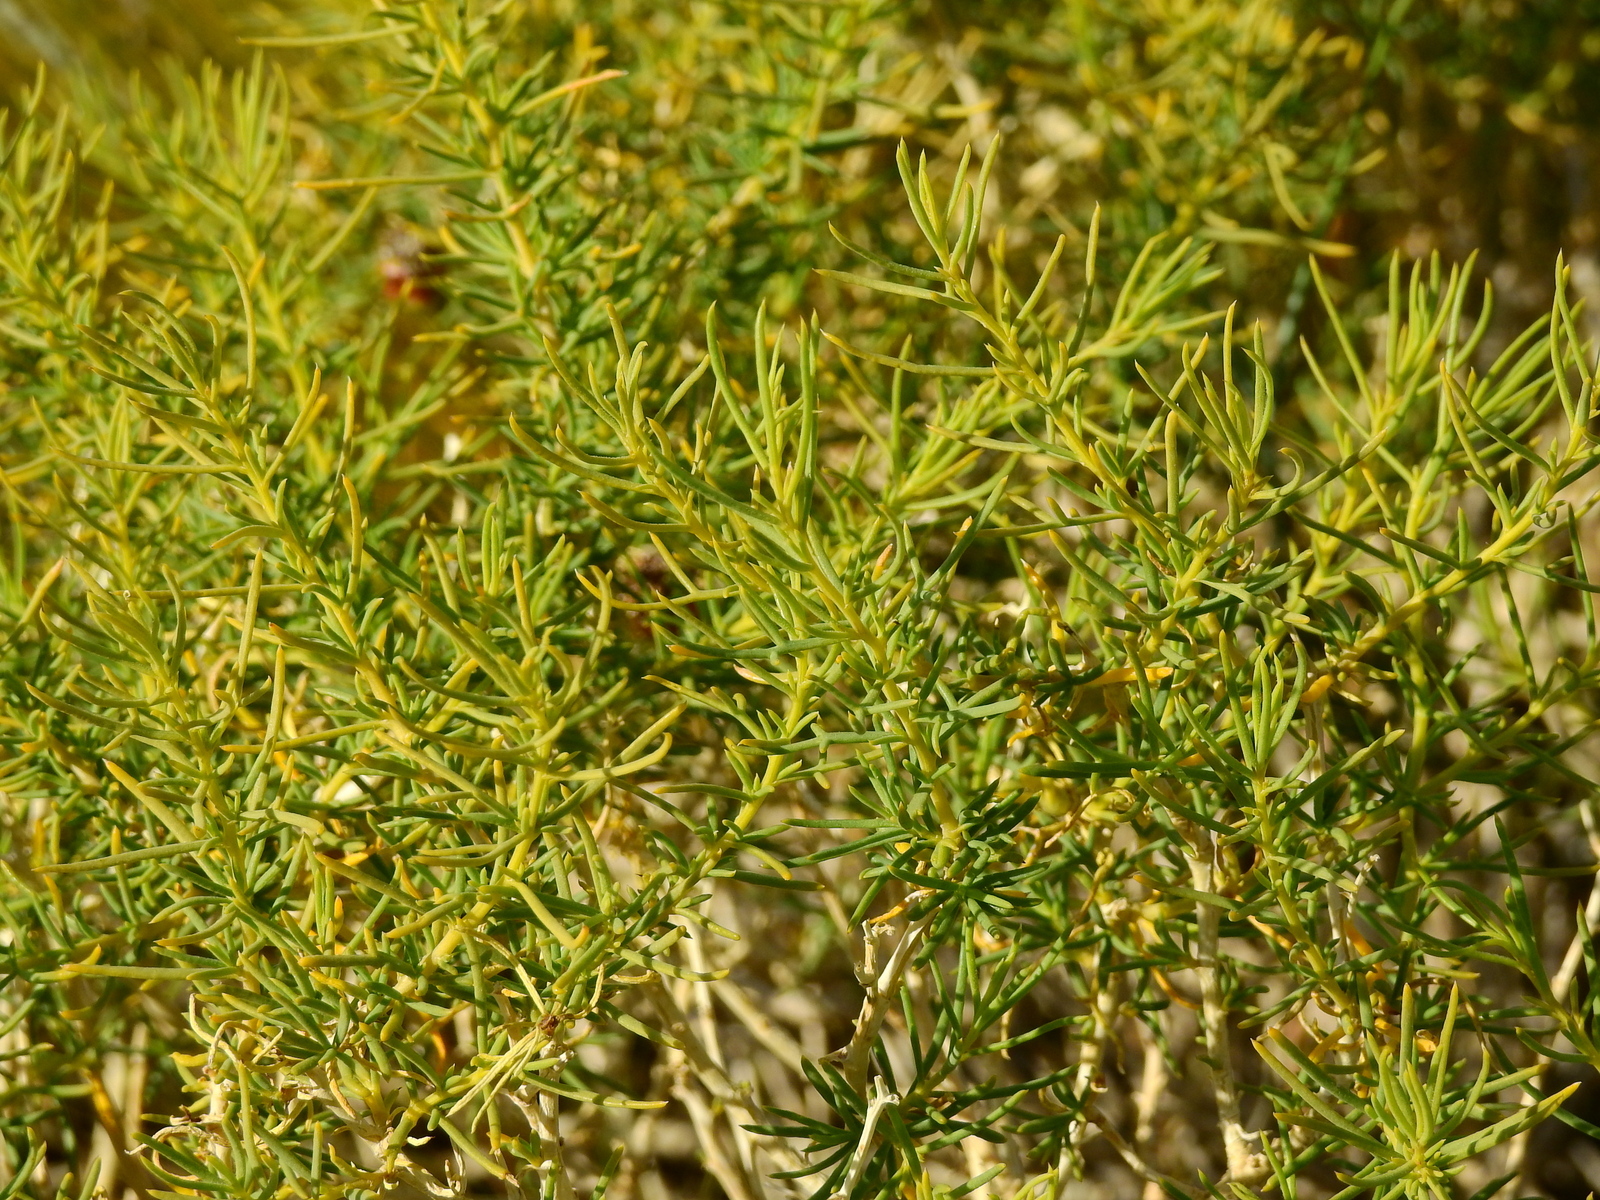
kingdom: Plantae
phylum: Tracheophyta
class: Magnoliopsida
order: Asterales
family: Asteraceae
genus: Senecio
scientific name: Senecio subulatus
